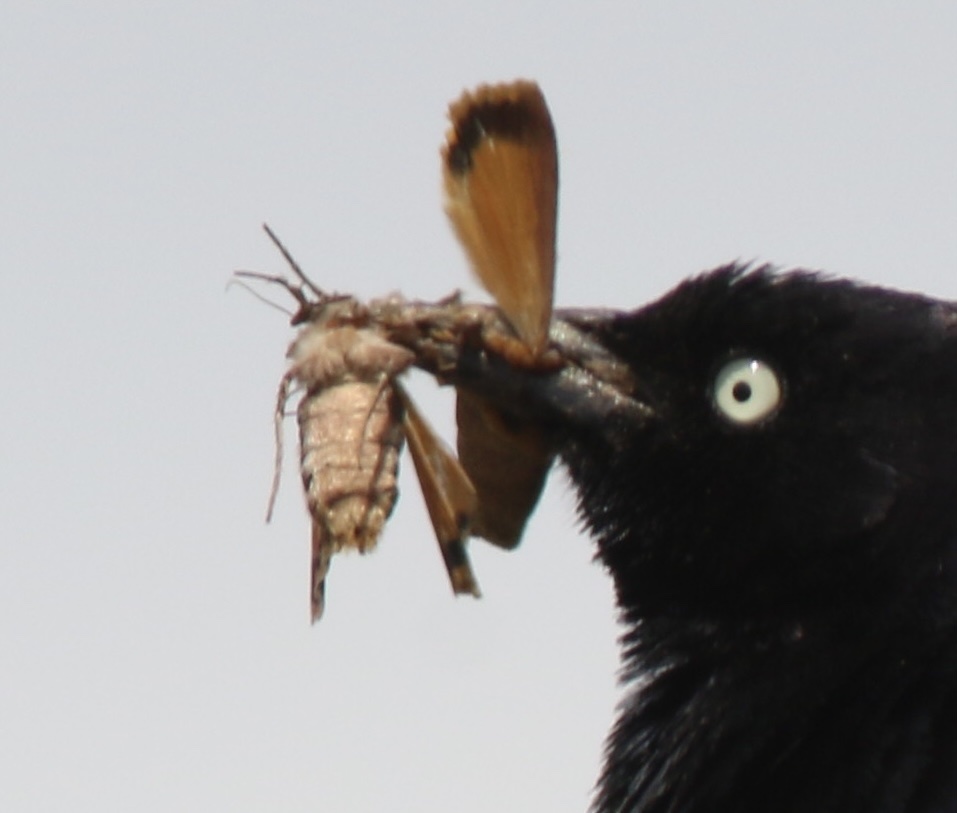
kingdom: Animalia
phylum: Arthropoda
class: Insecta
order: Lepidoptera
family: Noctuidae
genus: Noctua
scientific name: Noctua pronuba
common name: Large yellow underwing
